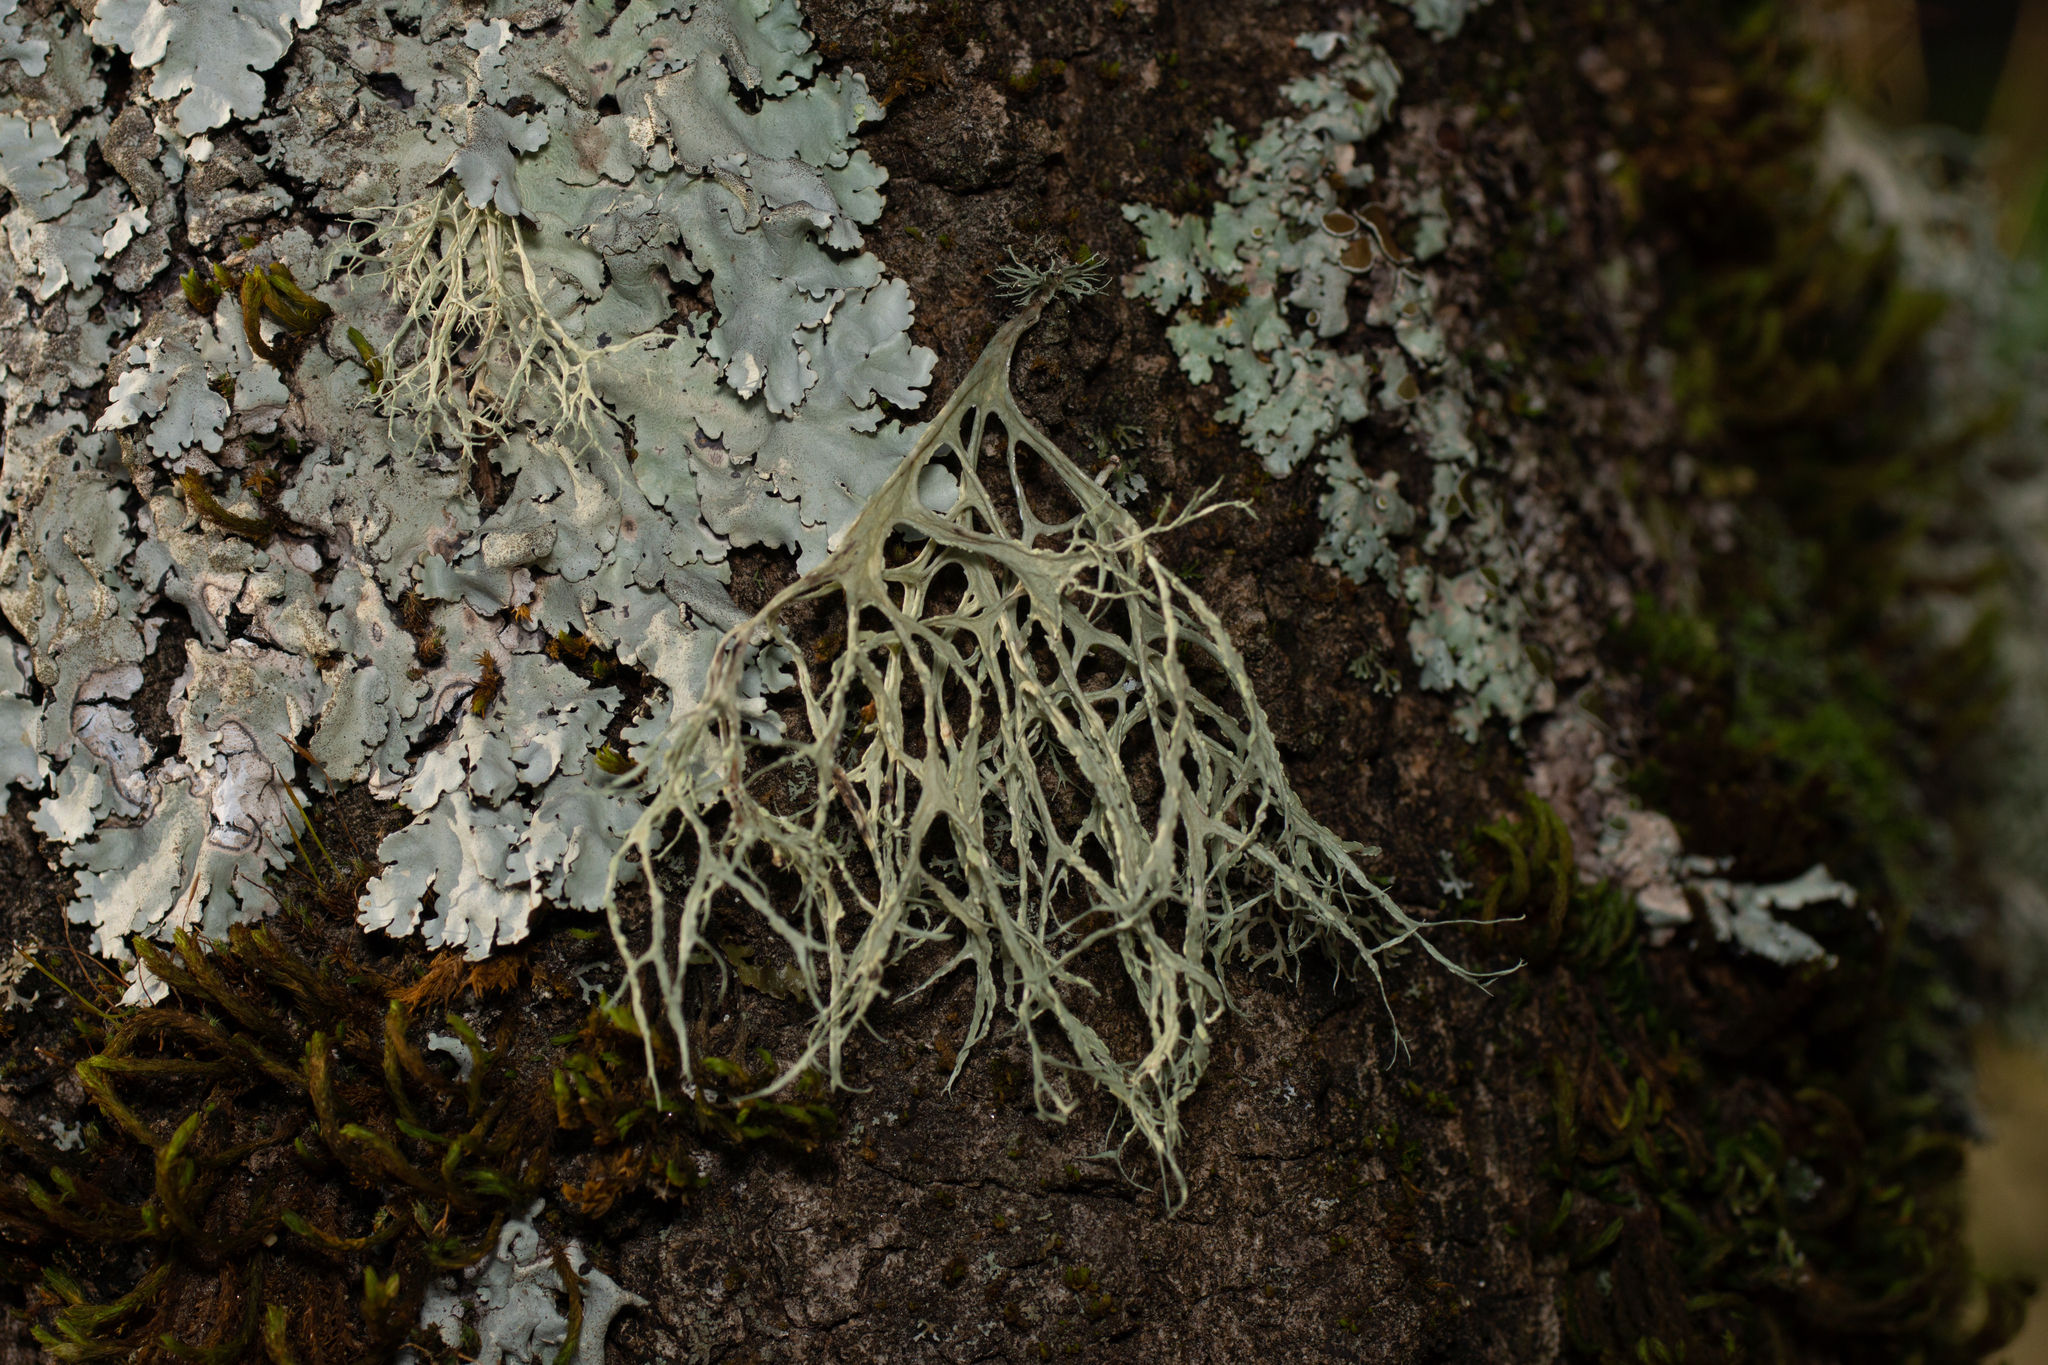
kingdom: Fungi
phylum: Ascomycota
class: Lecanoromycetes
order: Lecanorales
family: Ramalinaceae
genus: Ramalina
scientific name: Ramalina farinacea
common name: Farinose cartilage lichen
